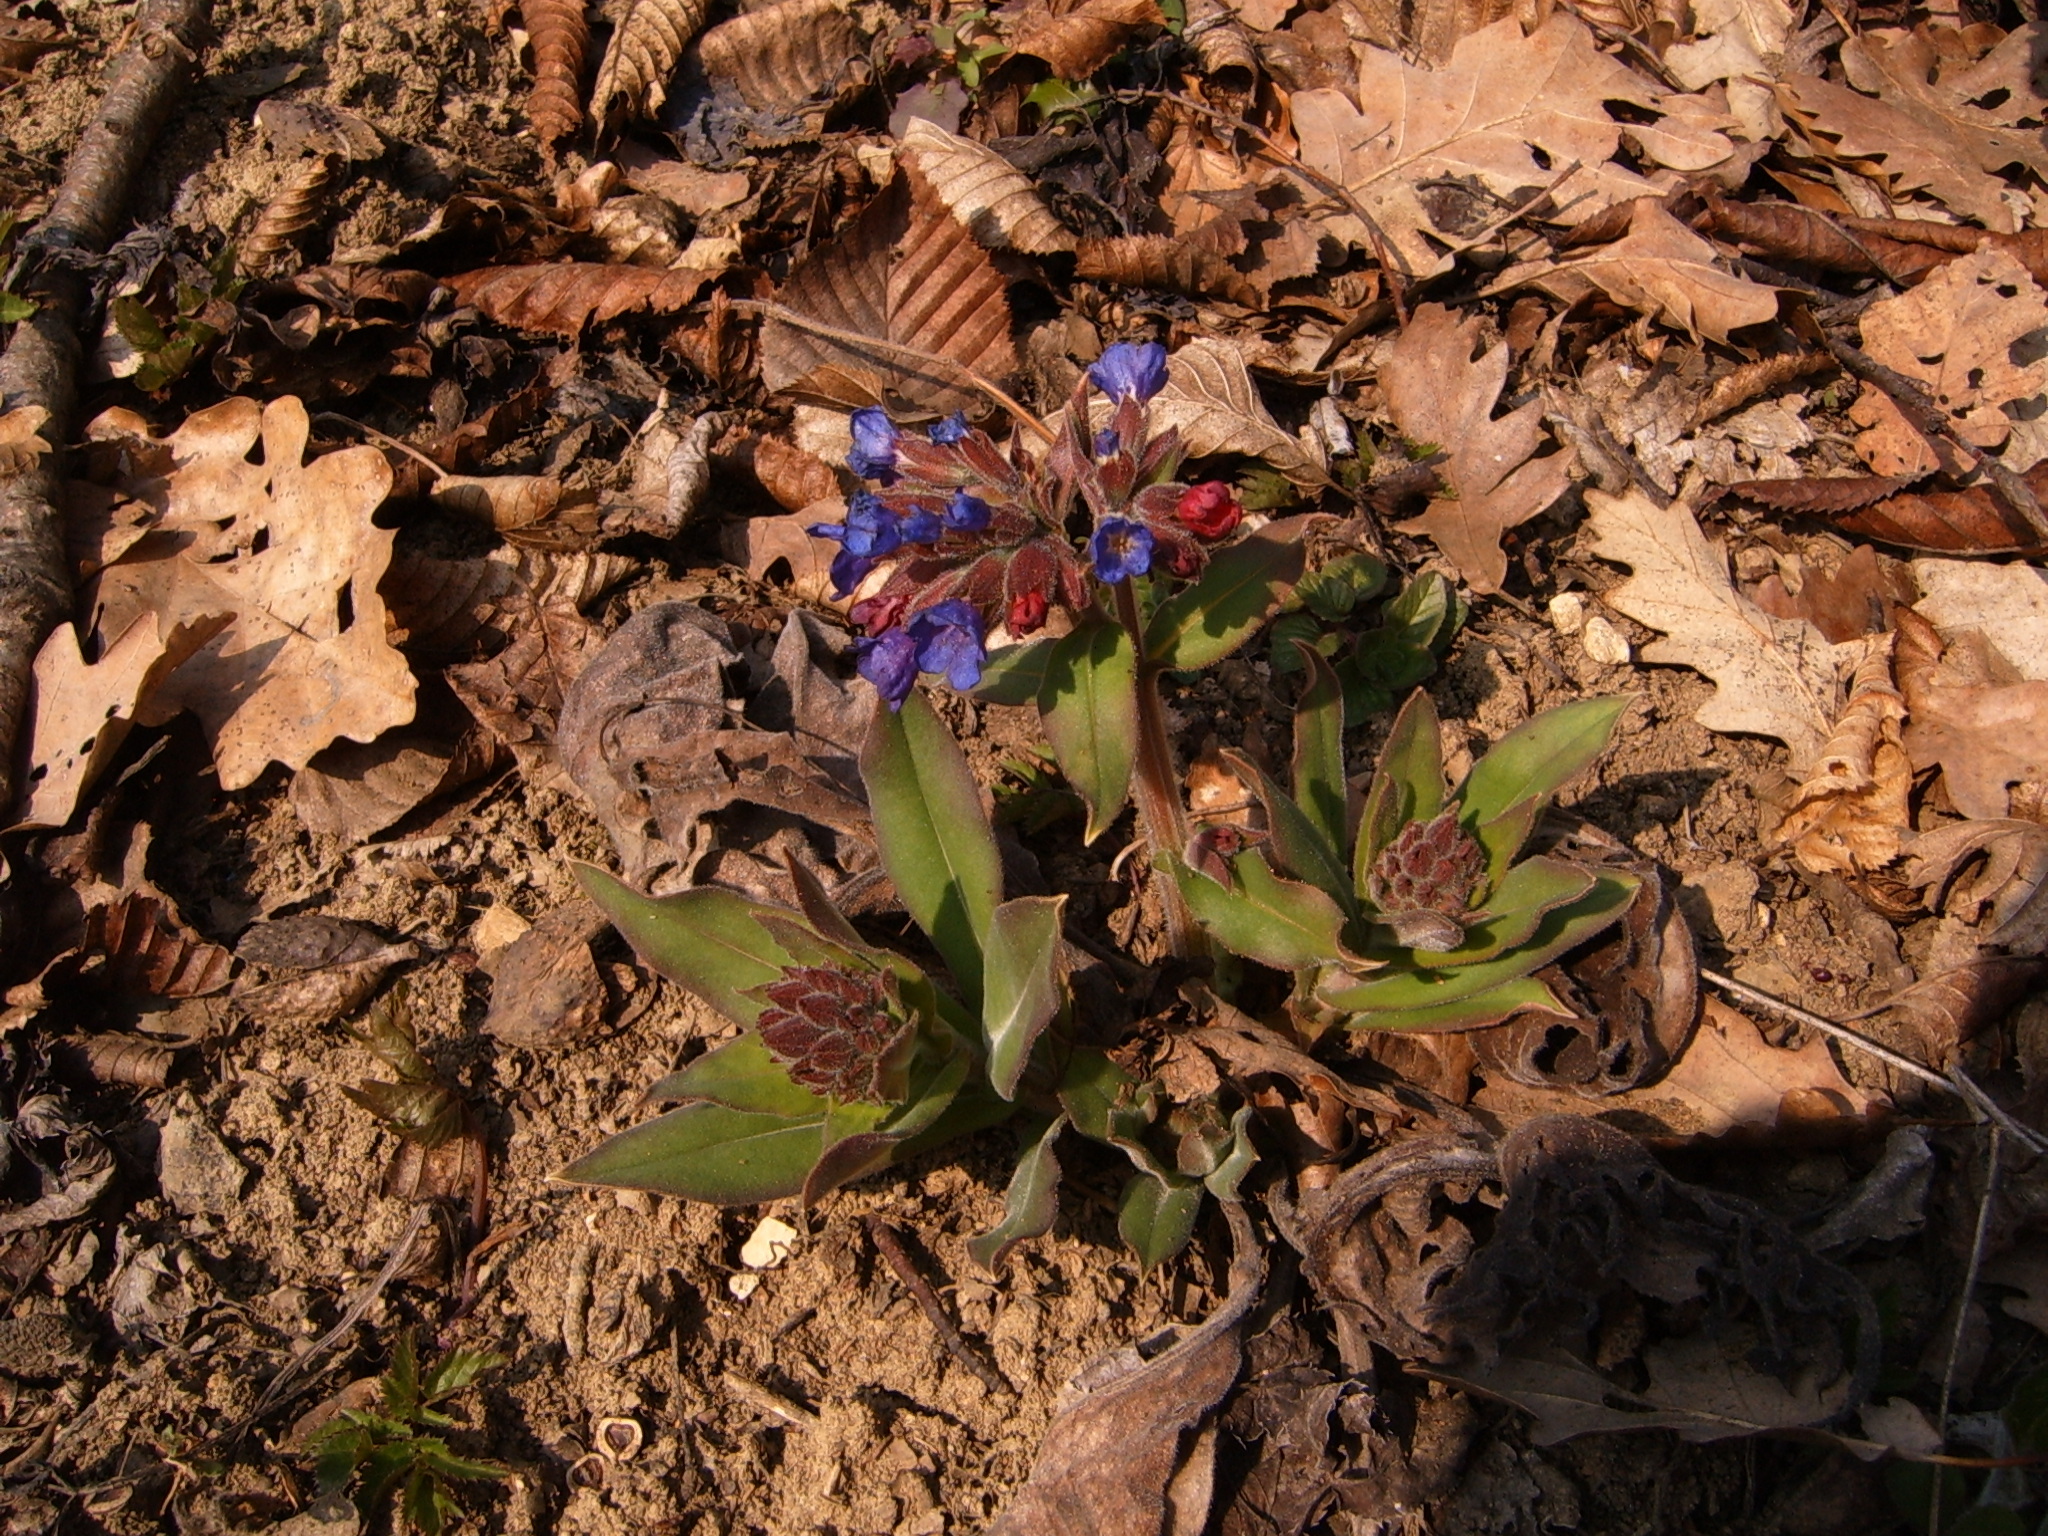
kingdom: Plantae
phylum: Tracheophyta
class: Magnoliopsida
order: Boraginales
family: Boraginaceae
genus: Pulmonaria
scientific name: Pulmonaria mollis
